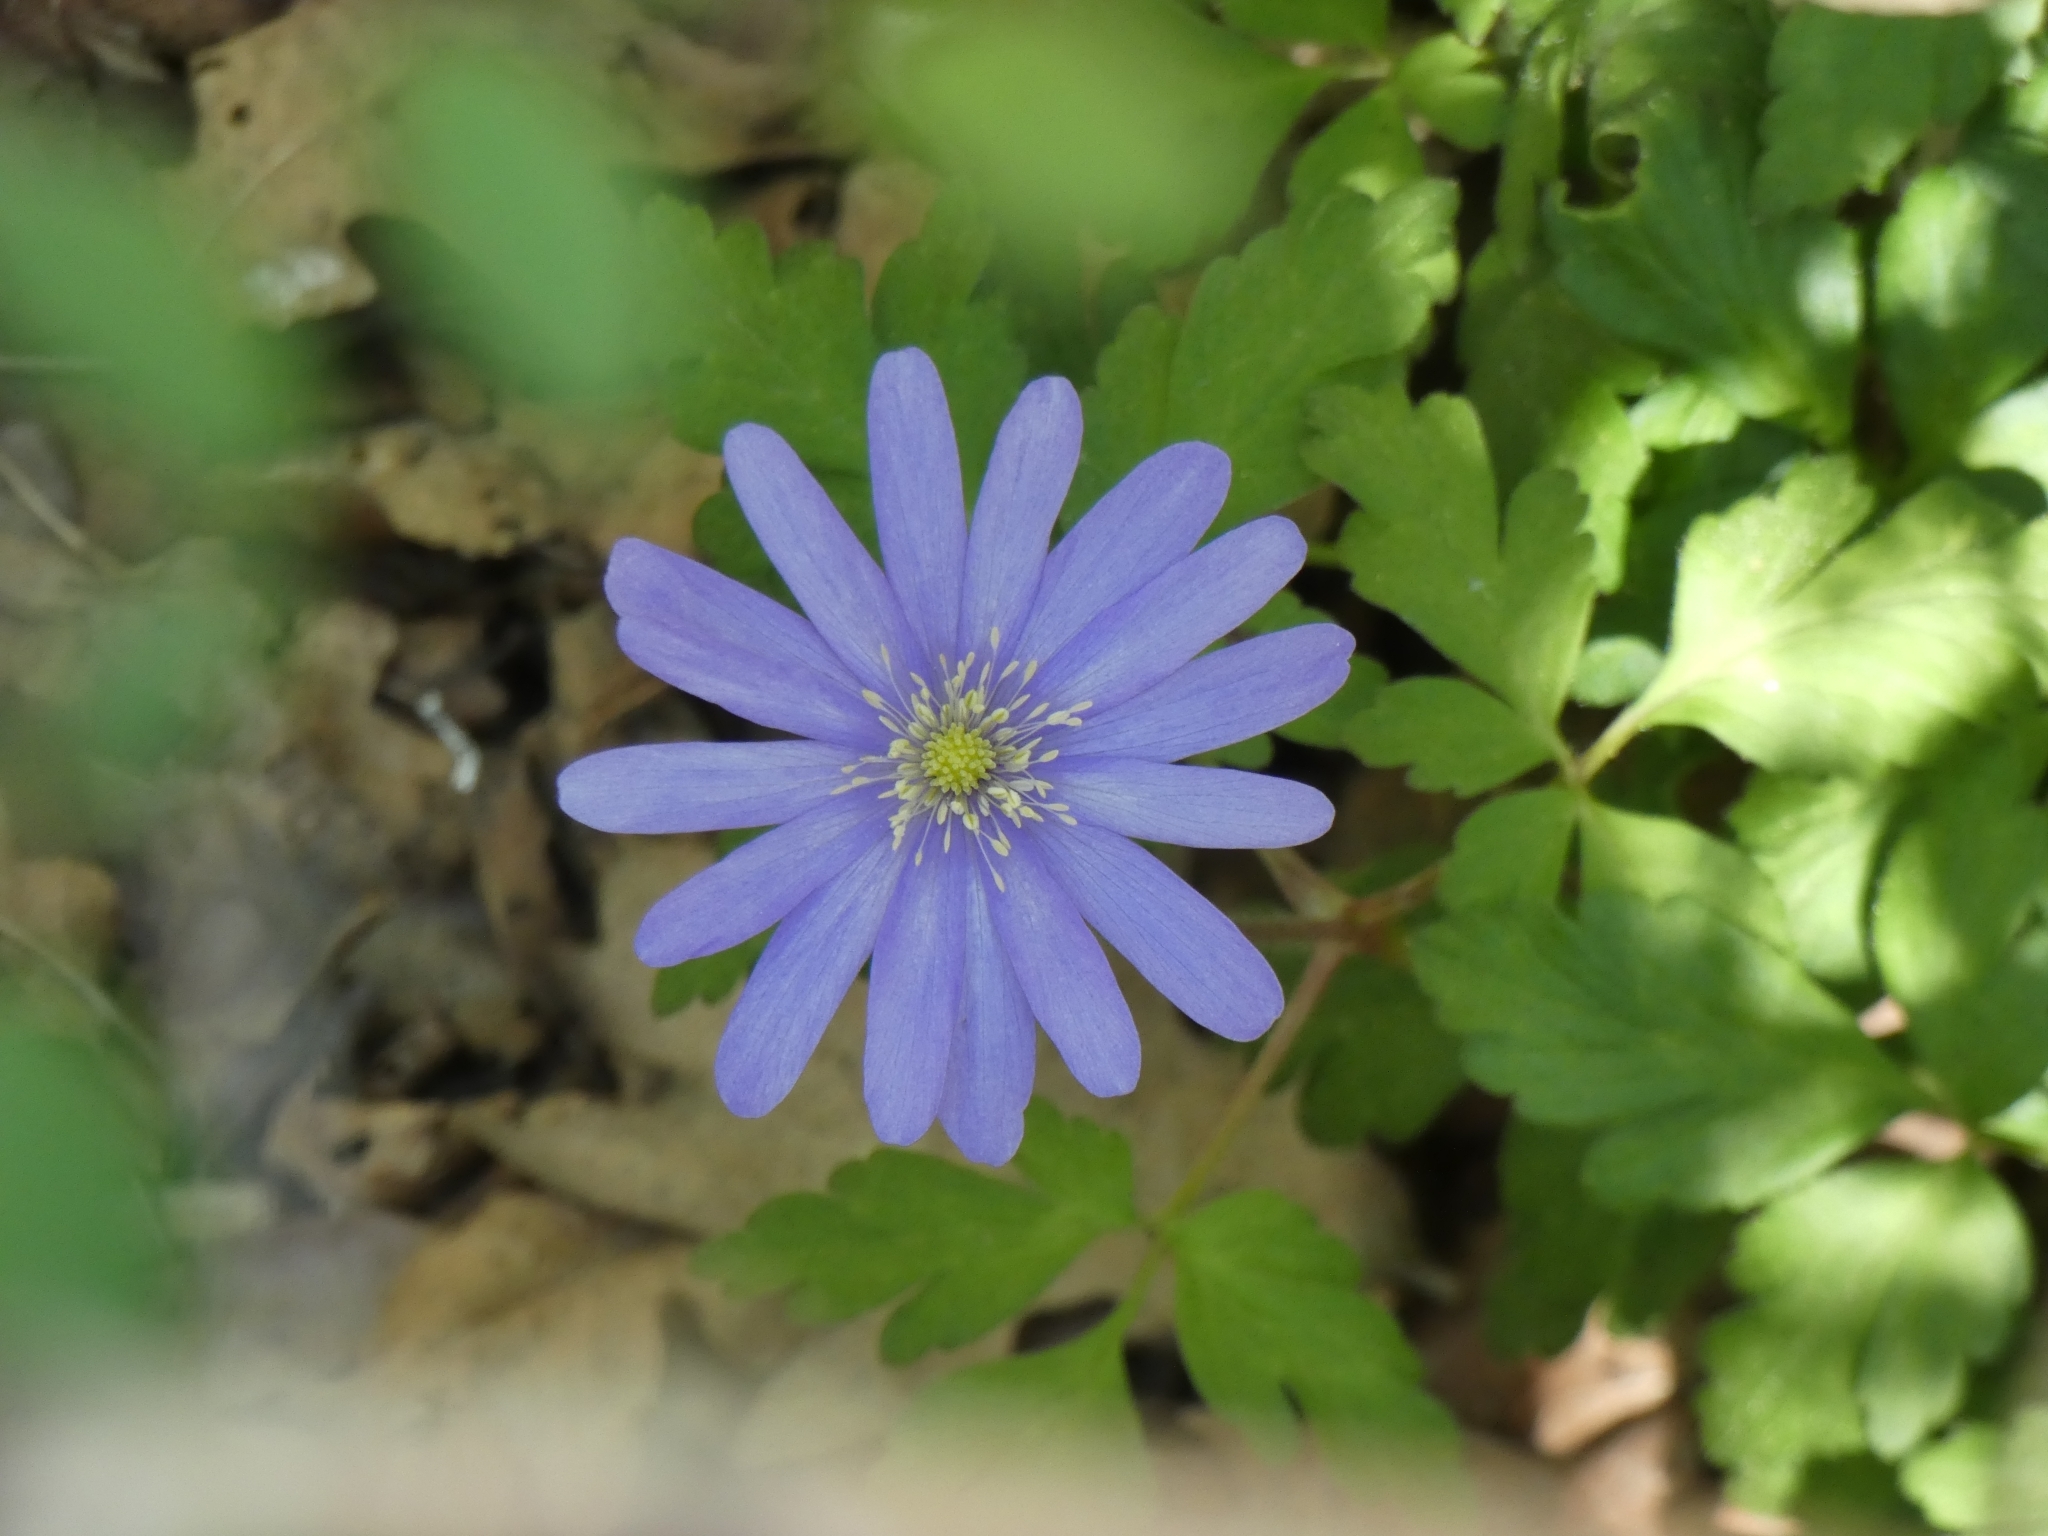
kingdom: Plantae
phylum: Tracheophyta
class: Magnoliopsida
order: Ranunculales
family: Ranunculaceae
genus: Anemone
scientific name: Anemone apennina
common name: Blue anemone
